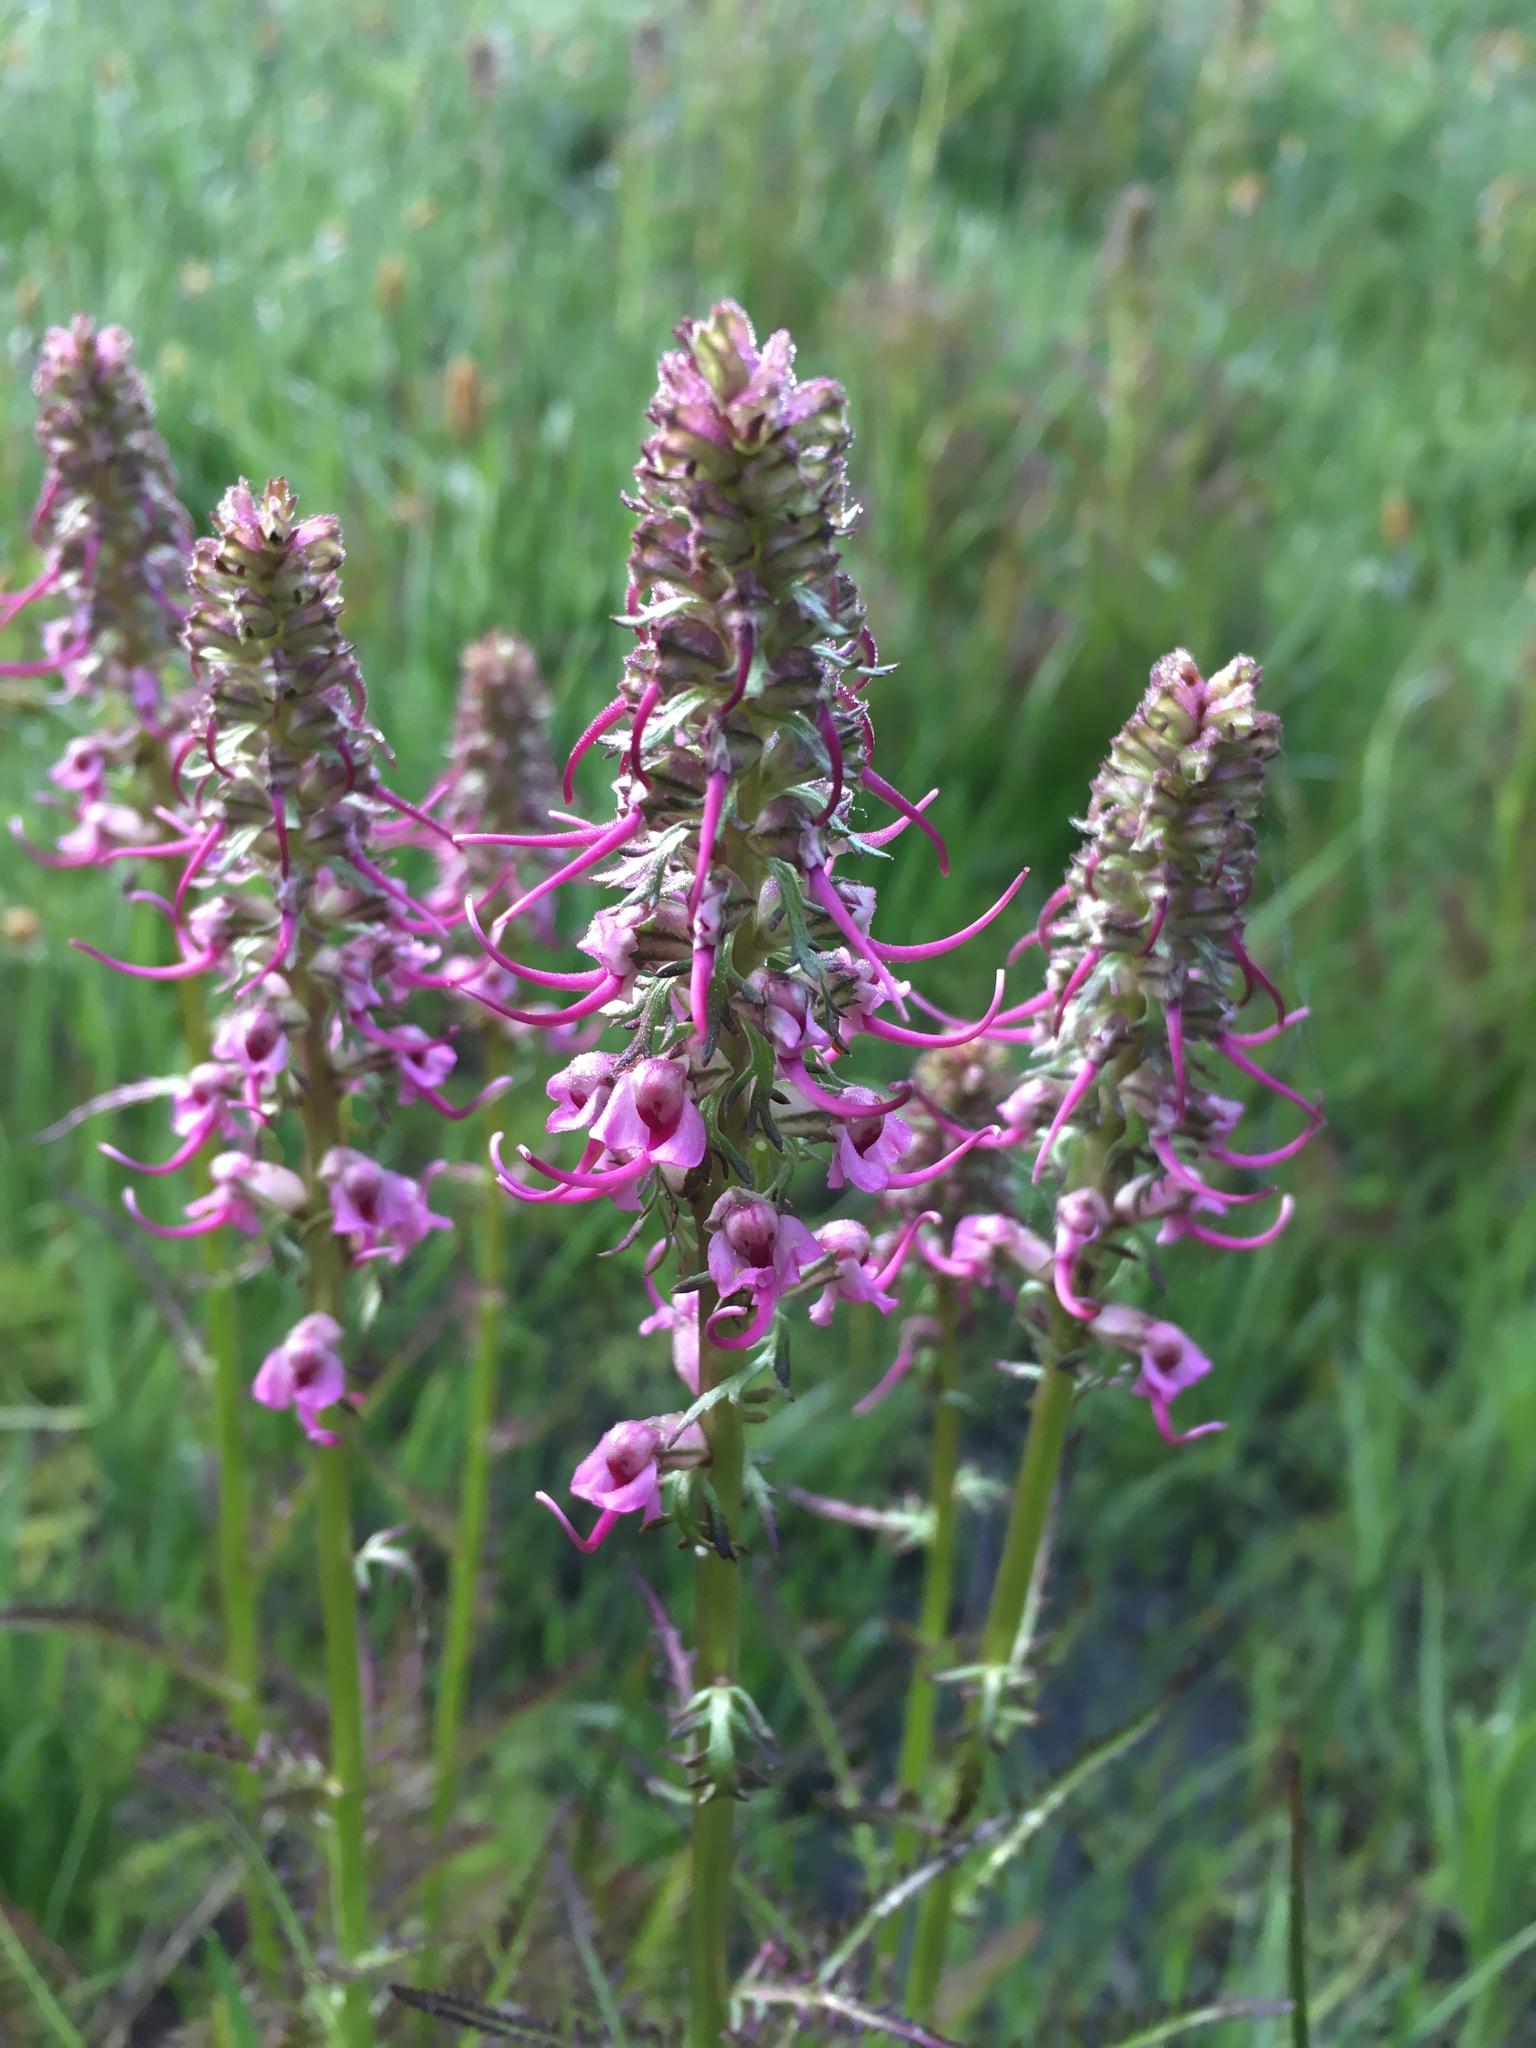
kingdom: Plantae
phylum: Tracheophyta
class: Magnoliopsida
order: Lamiales
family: Orobanchaceae
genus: Pedicularis
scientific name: Pedicularis groenlandica
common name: Elephant's-head
